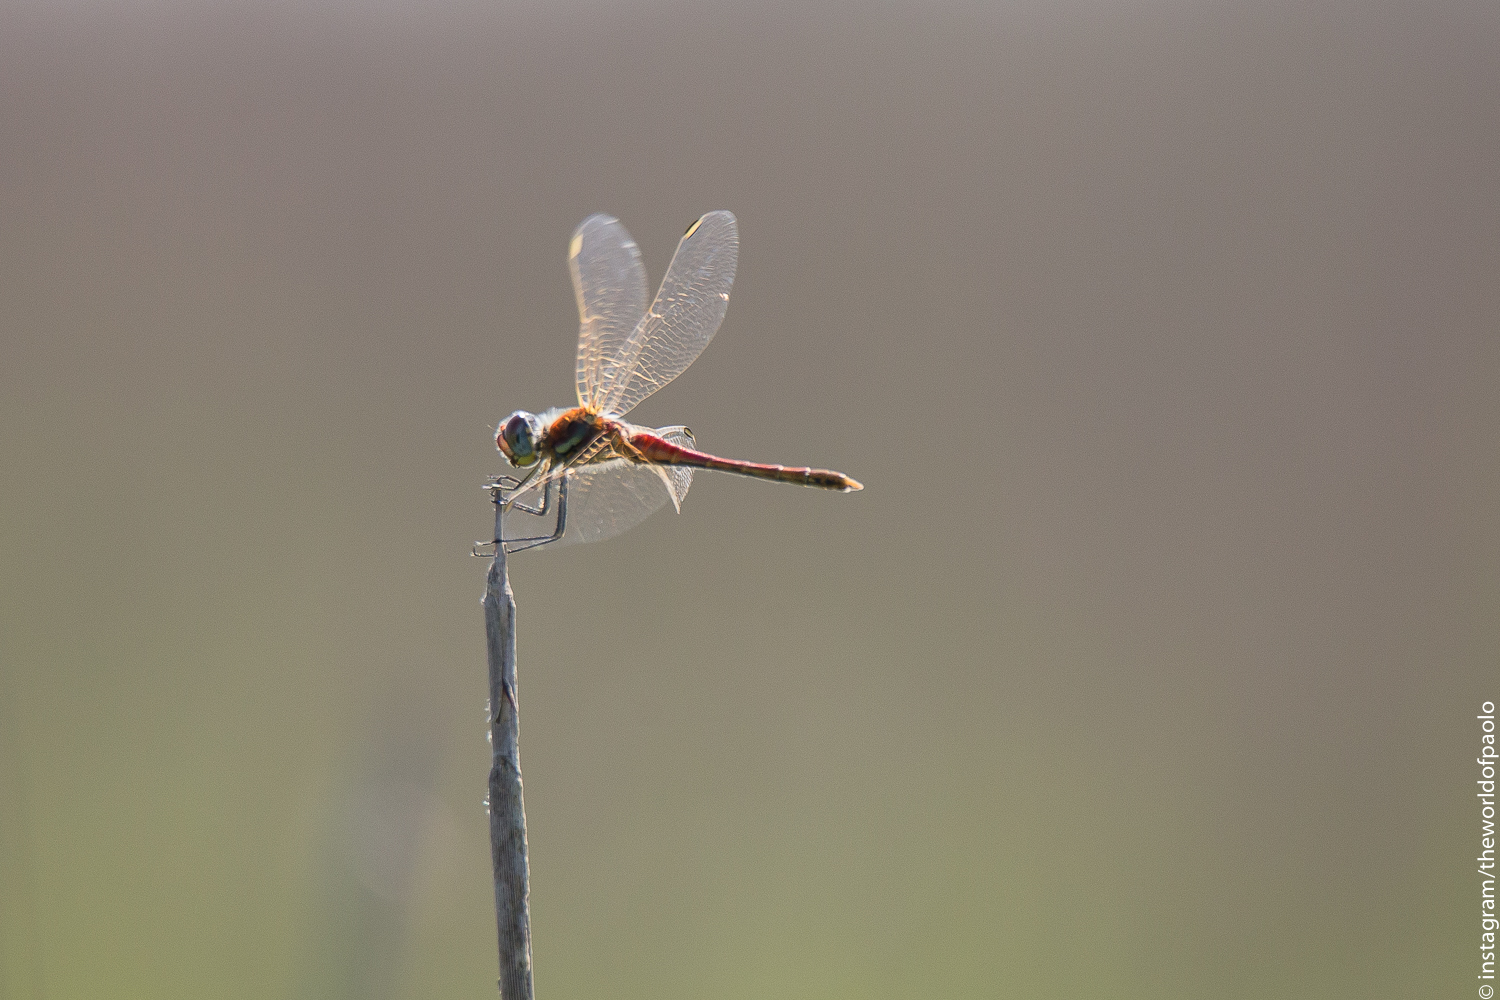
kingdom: Animalia
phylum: Arthropoda
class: Insecta
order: Odonata
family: Libellulidae
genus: Sympetrum
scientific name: Sympetrum fonscolombii
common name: Red-veined darter
